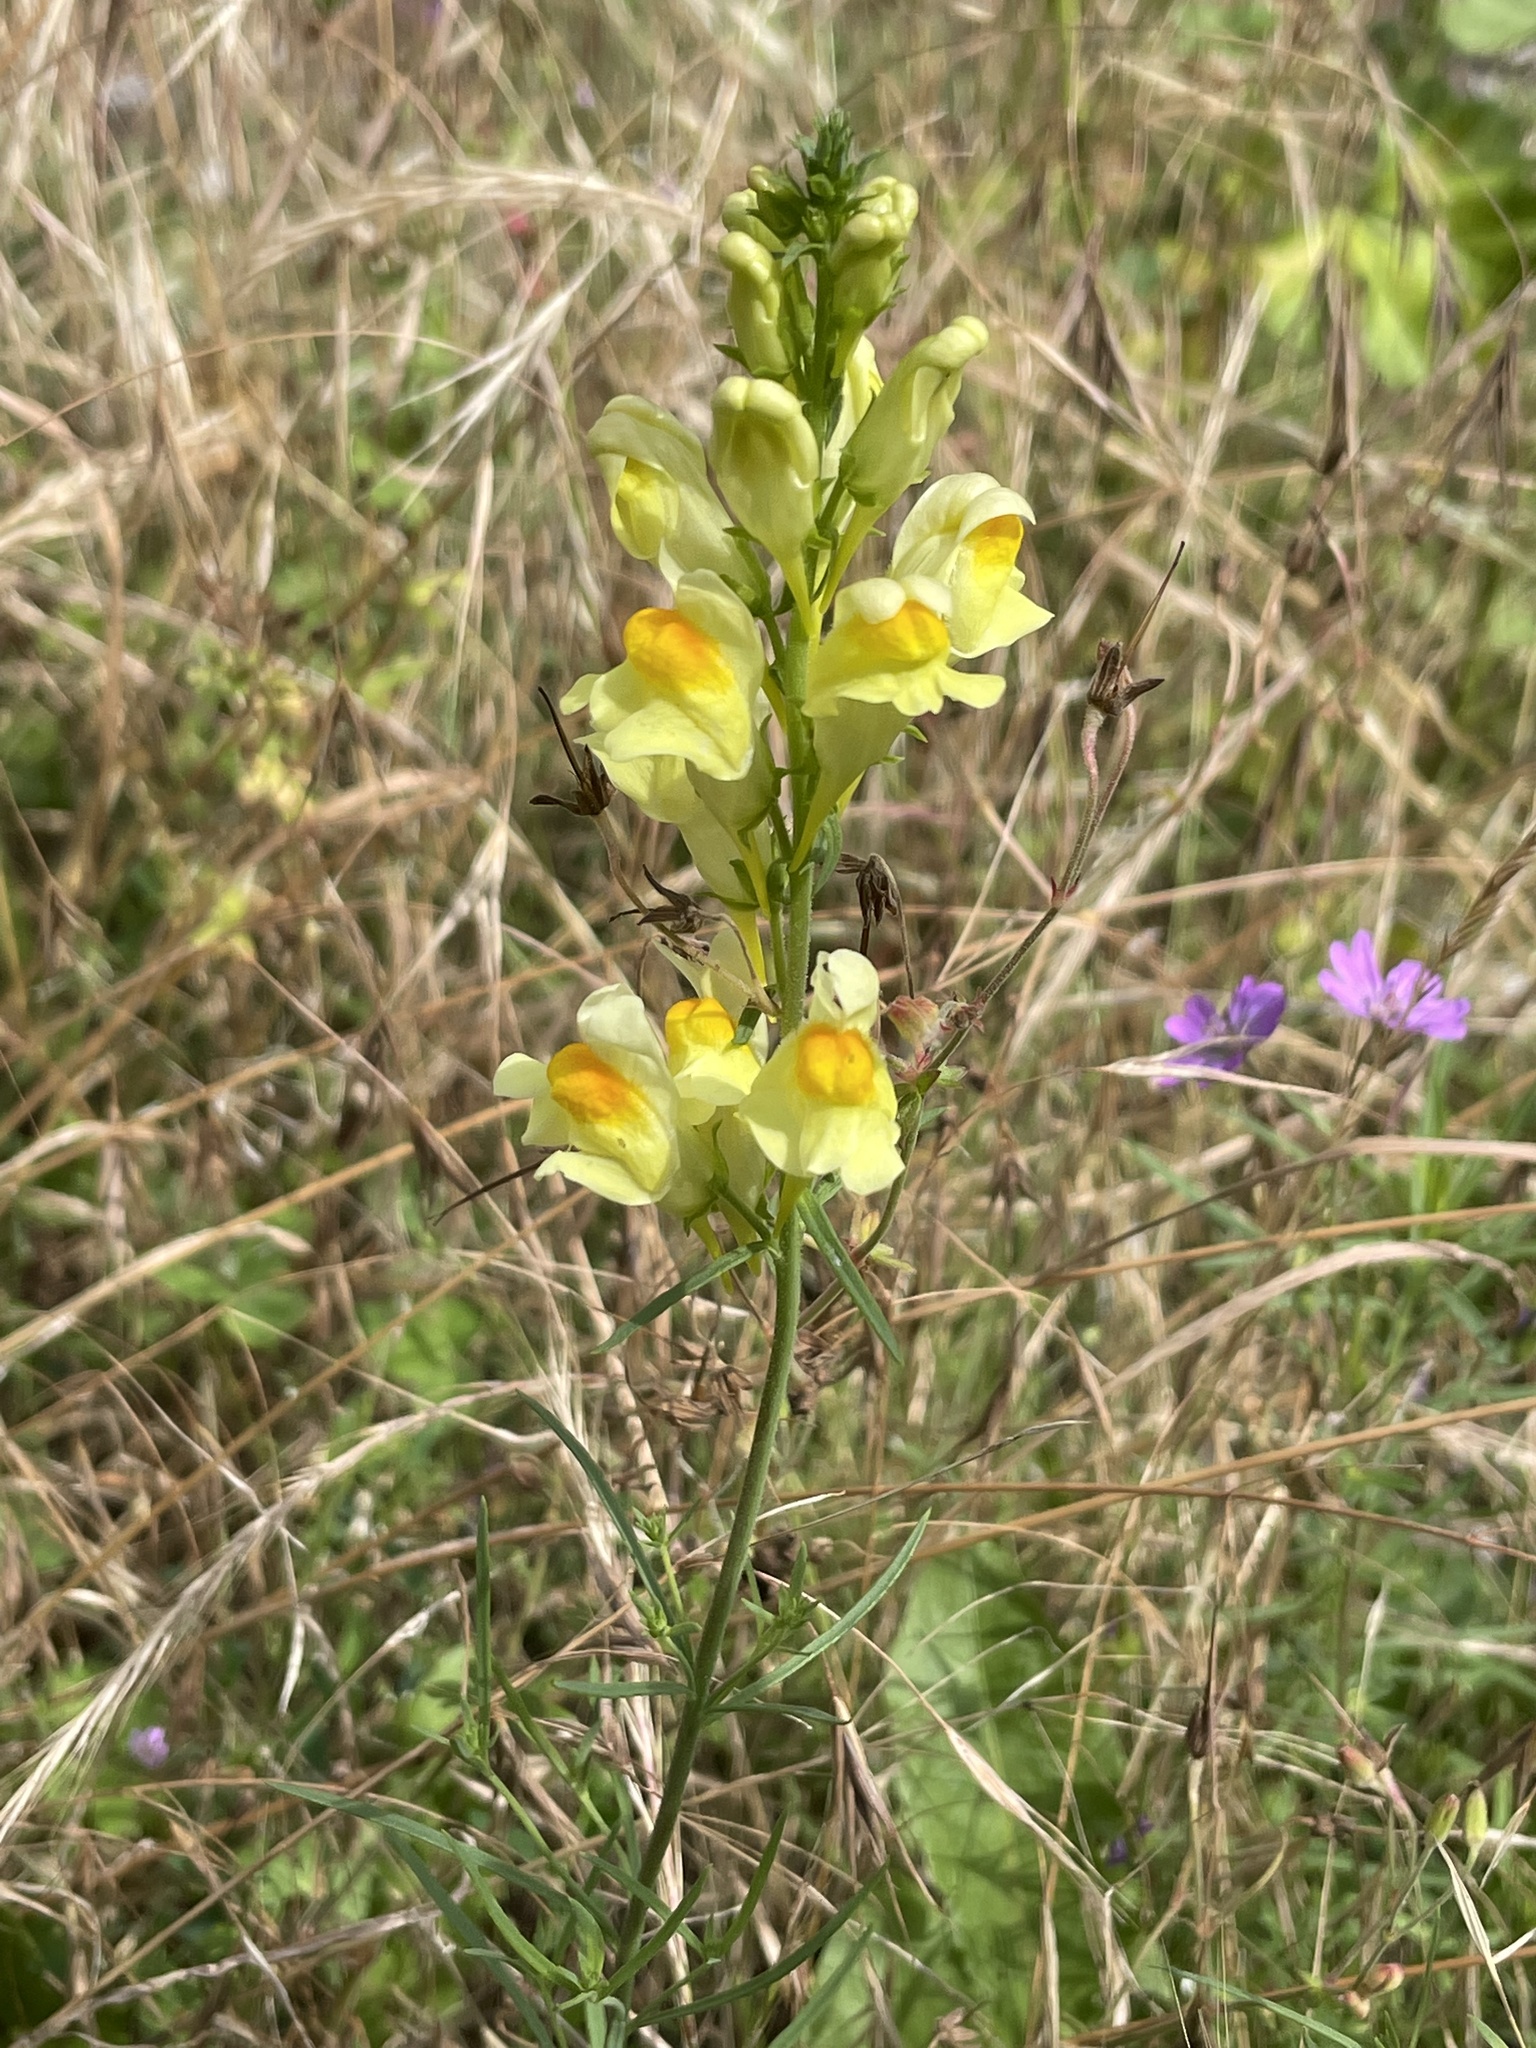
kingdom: Plantae
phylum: Tracheophyta
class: Magnoliopsida
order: Lamiales
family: Plantaginaceae
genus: Linaria
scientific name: Linaria vulgaris
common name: Butter and eggs
